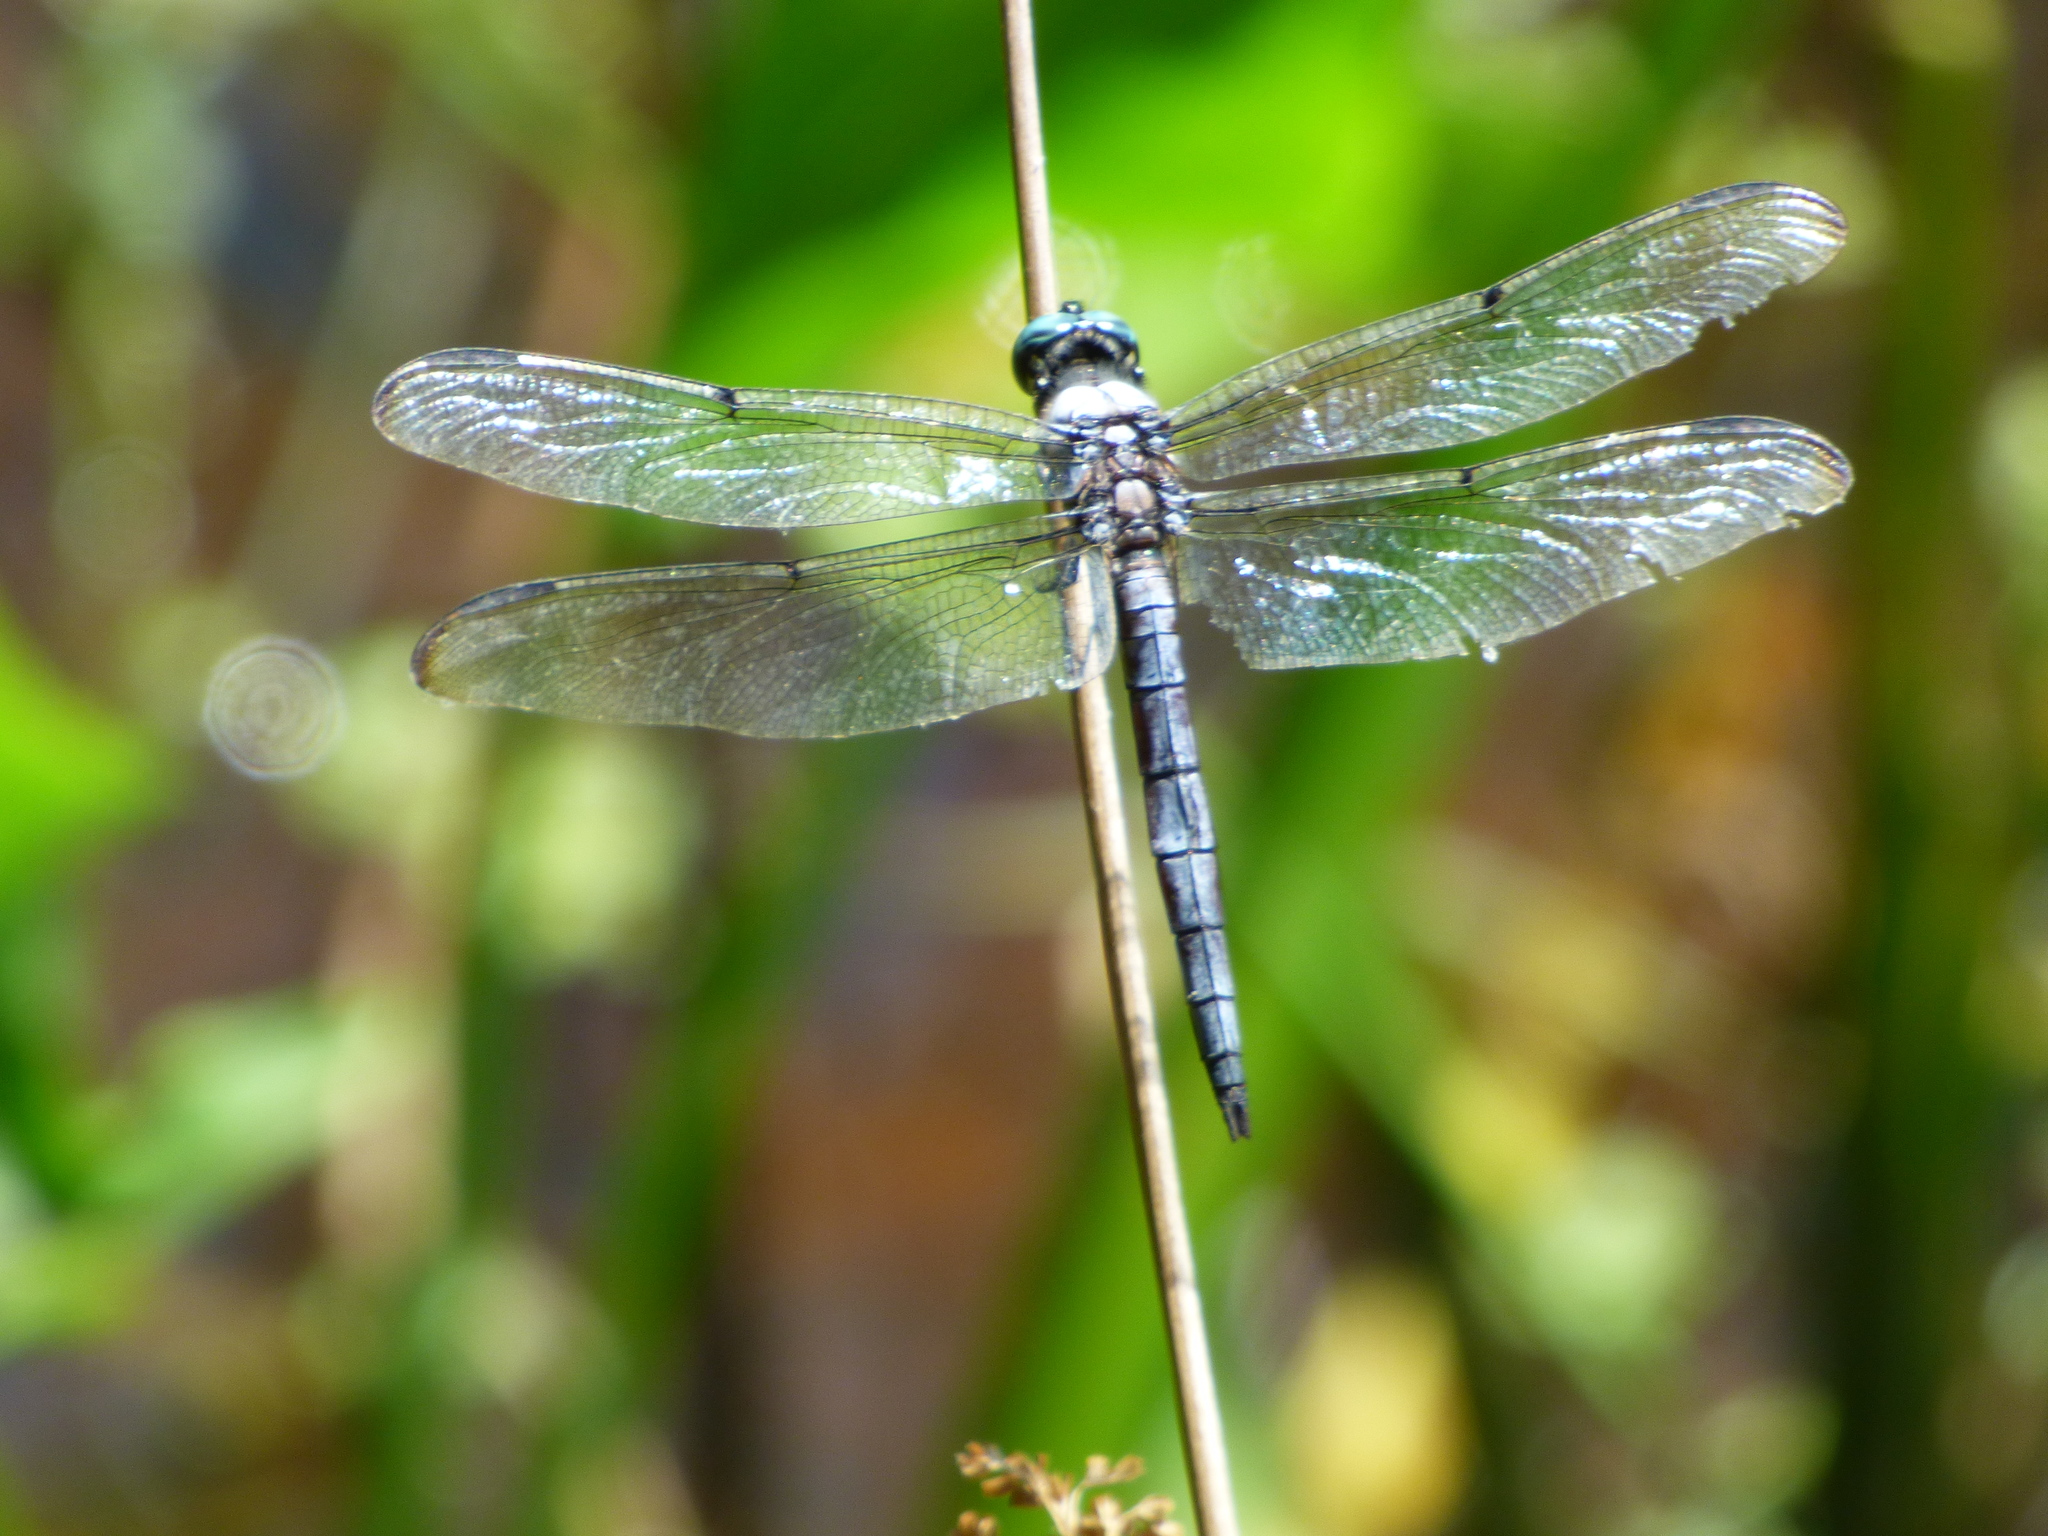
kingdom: Animalia
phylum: Arthropoda
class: Insecta
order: Odonata
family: Libellulidae
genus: Libellula
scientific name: Libellula vibrans
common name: Great blue skimmer
